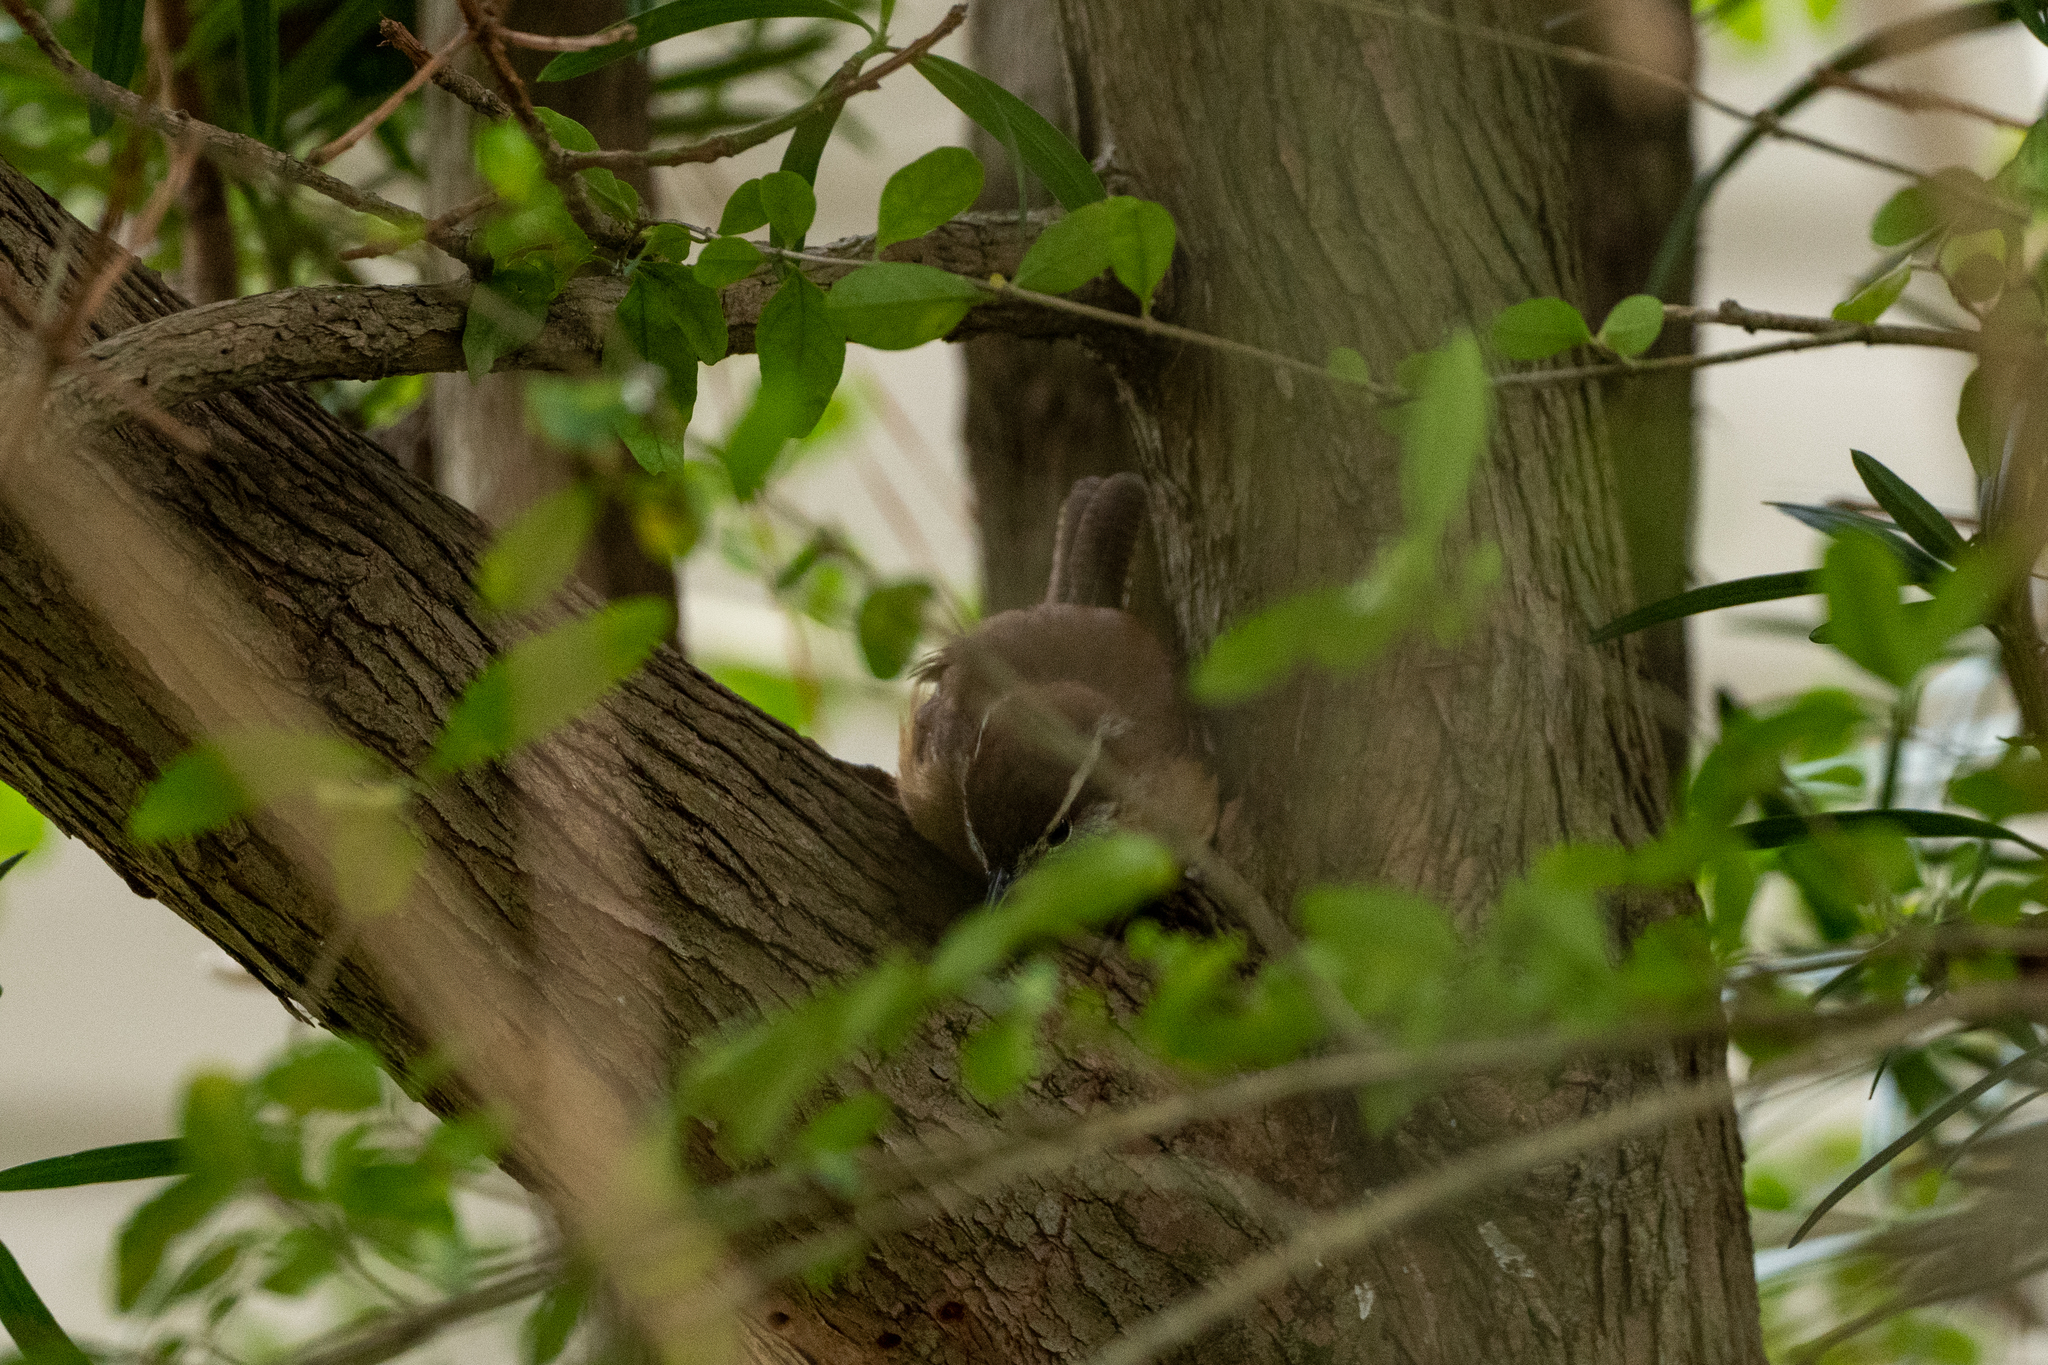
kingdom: Animalia
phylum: Chordata
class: Aves
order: Passeriformes
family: Troglodytidae
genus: Thryothorus
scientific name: Thryothorus ludovicianus
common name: Carolina wren
